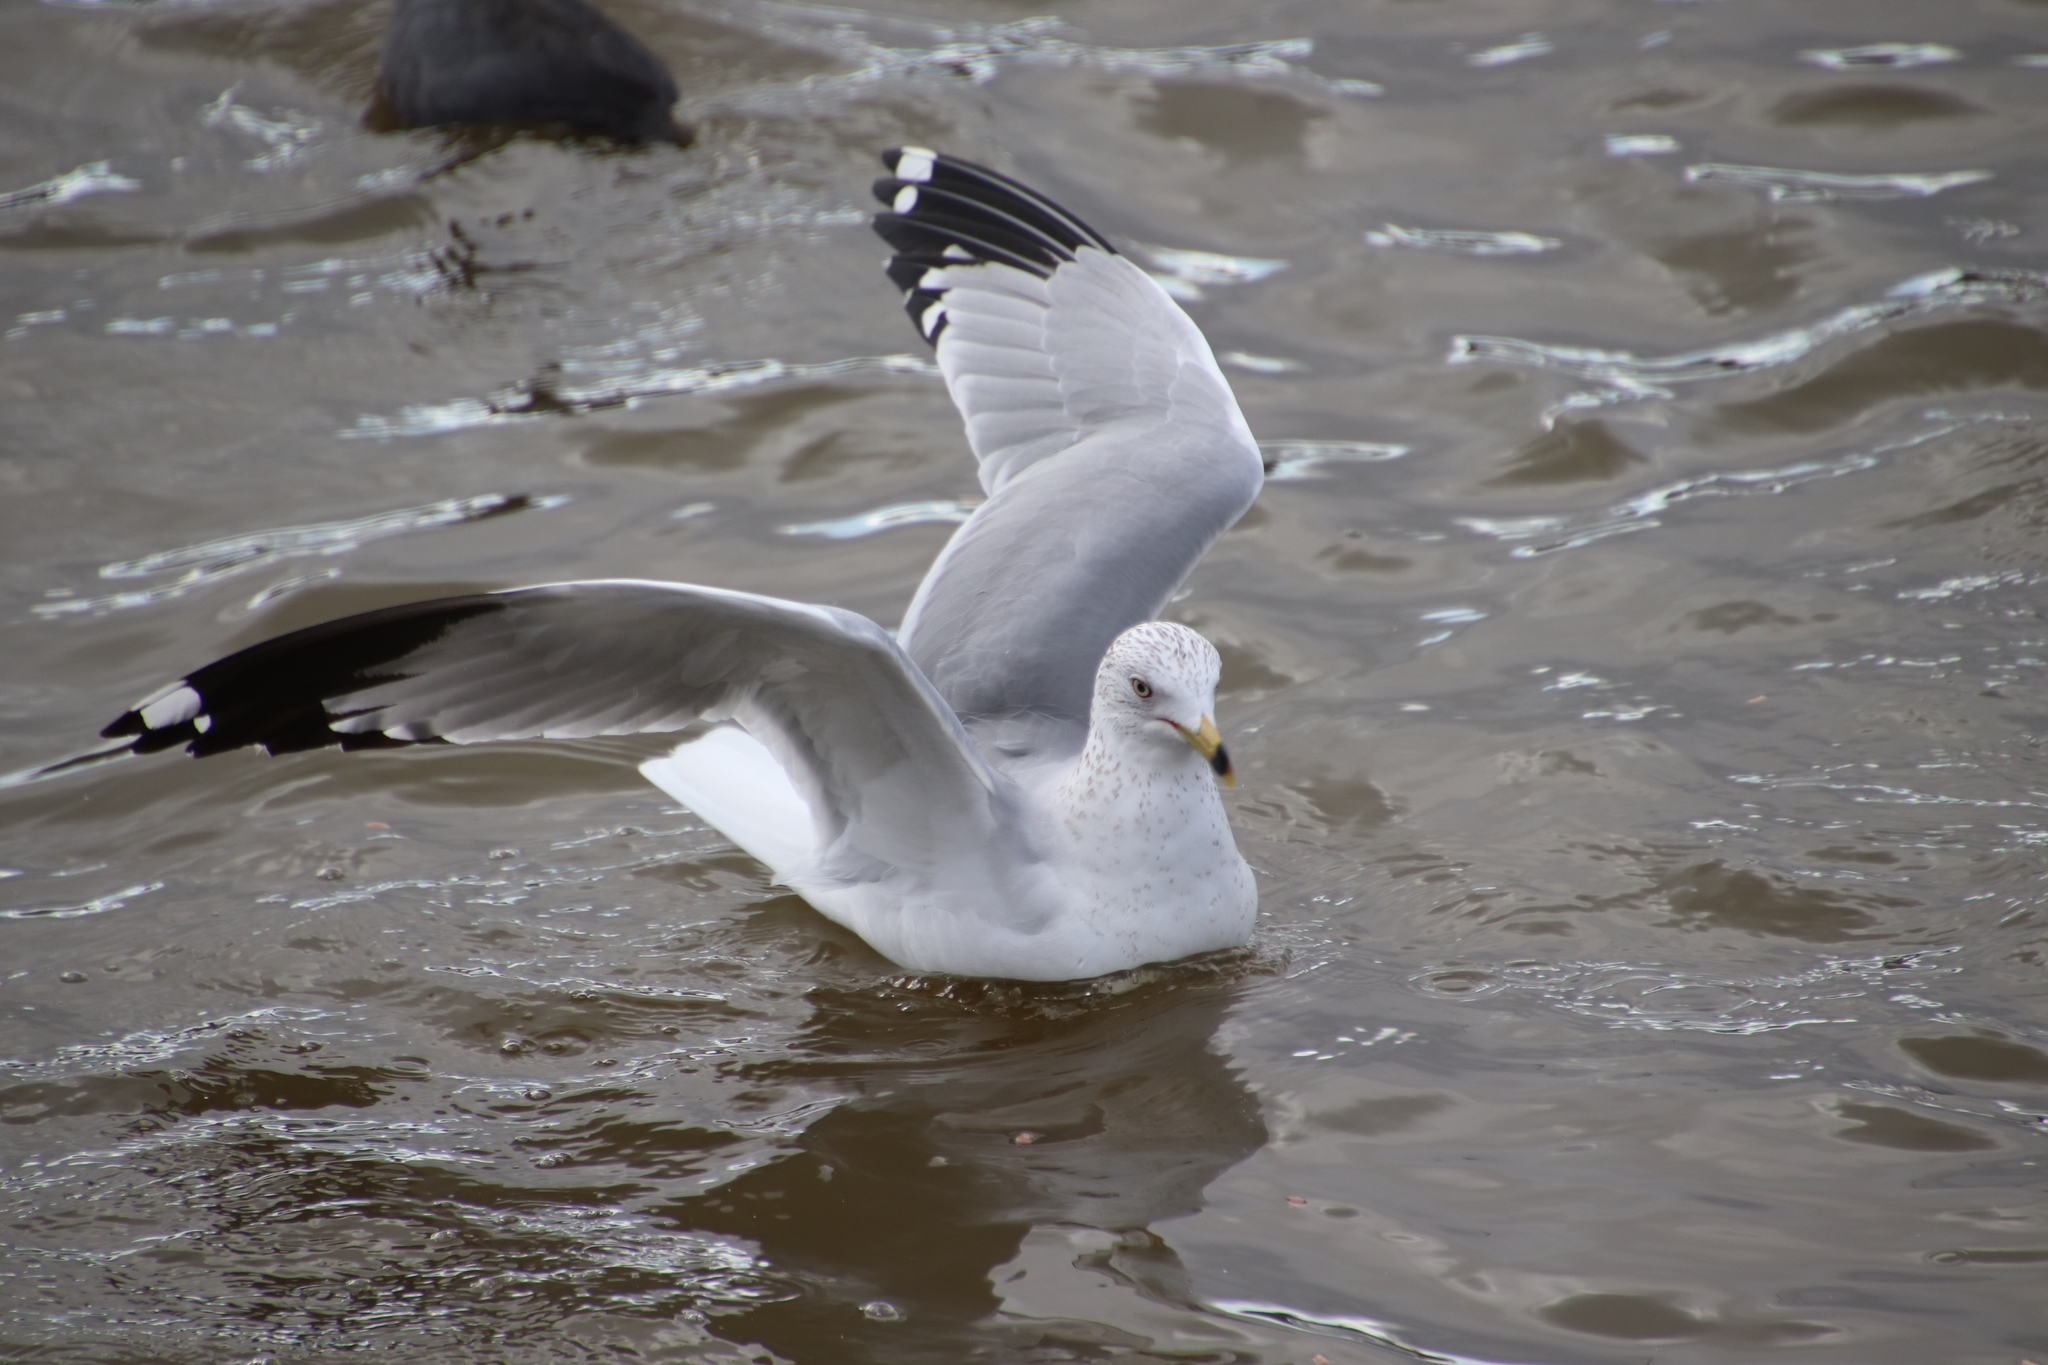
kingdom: Animalia
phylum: Chordata
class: Aves
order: Charadriiformes
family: Laridae
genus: Larus
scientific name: Larus delawarensis
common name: Ring-billed gull
